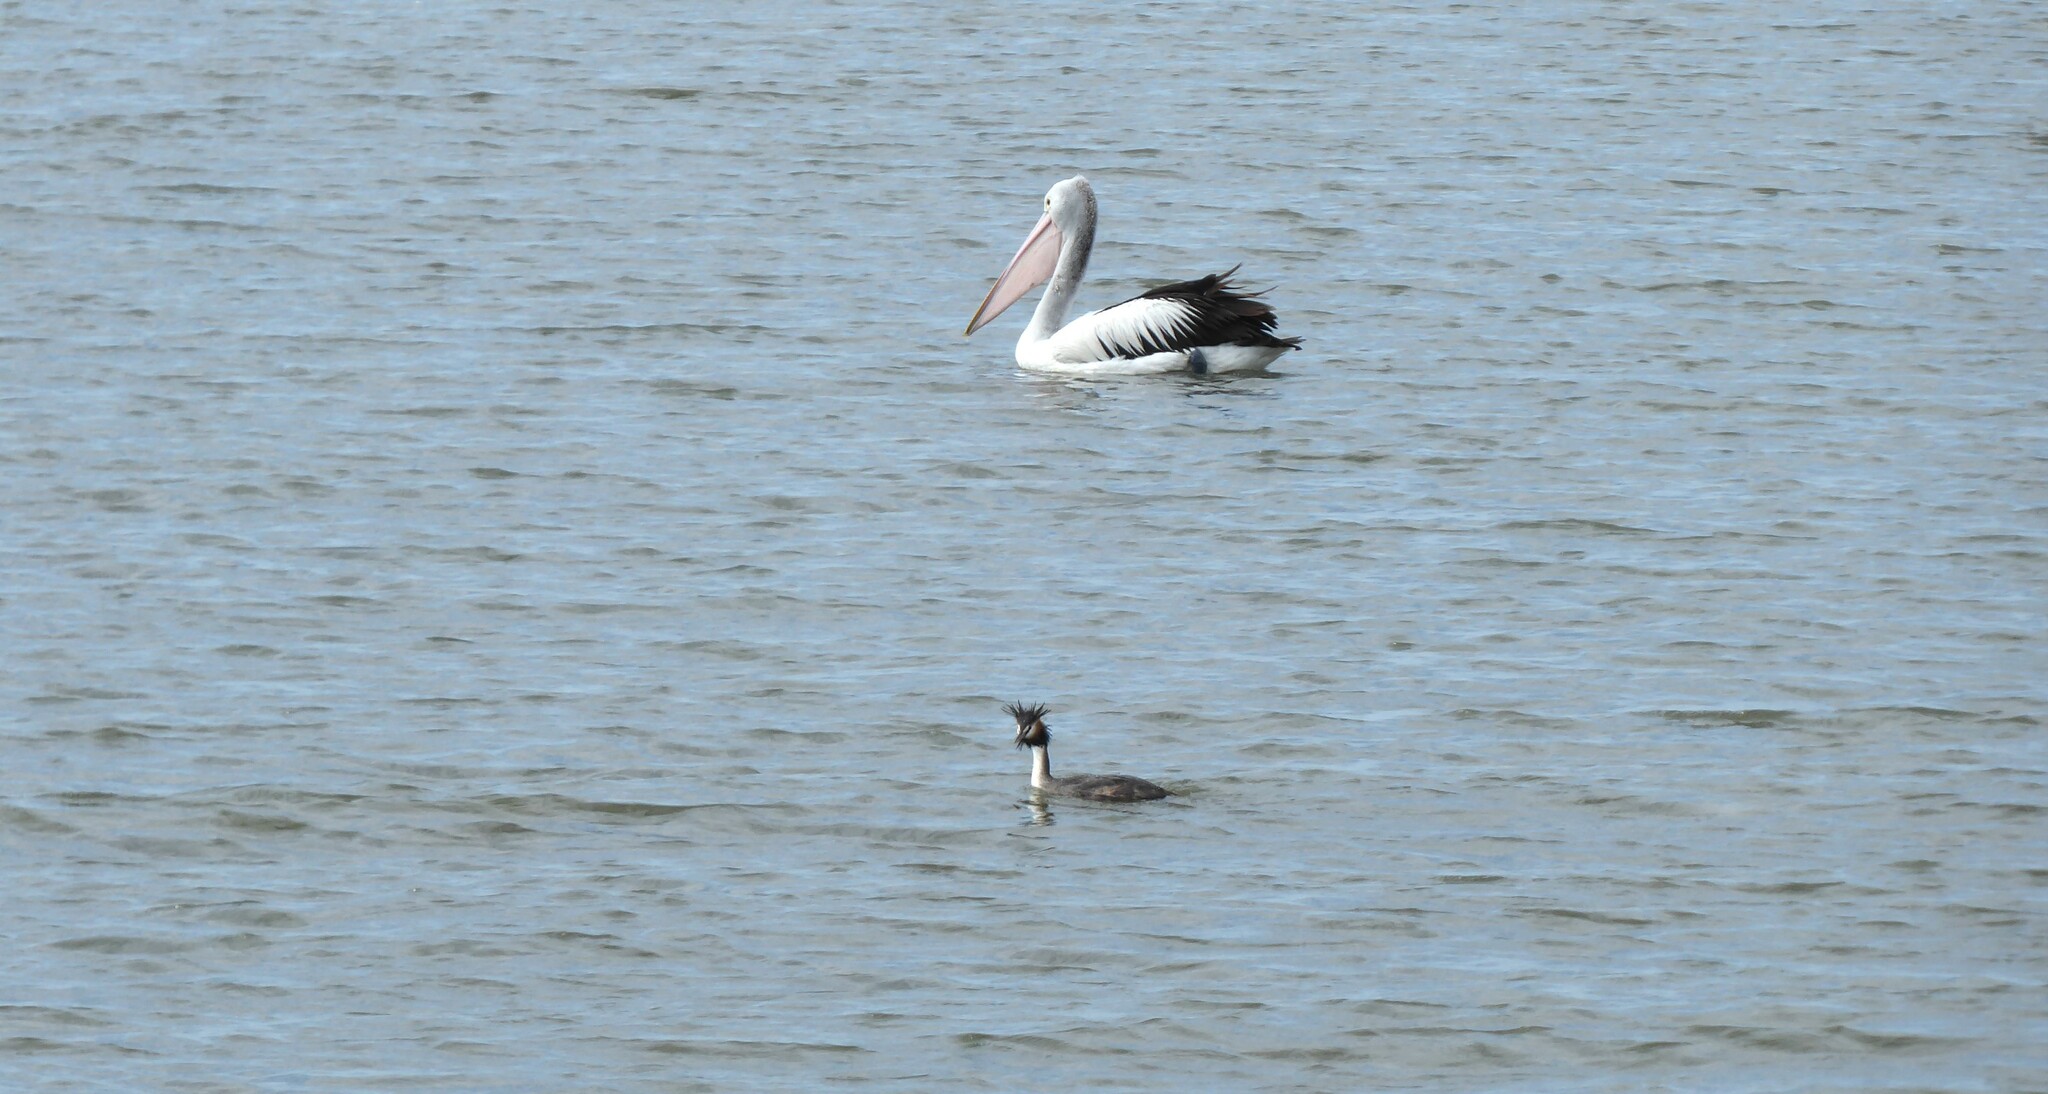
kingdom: Animalia
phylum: Chordata
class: Aves
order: Pelecaniformes
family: Pelecanidae
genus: Pelecanus
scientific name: Pelecanus conspicillatus
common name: Australian pelican
